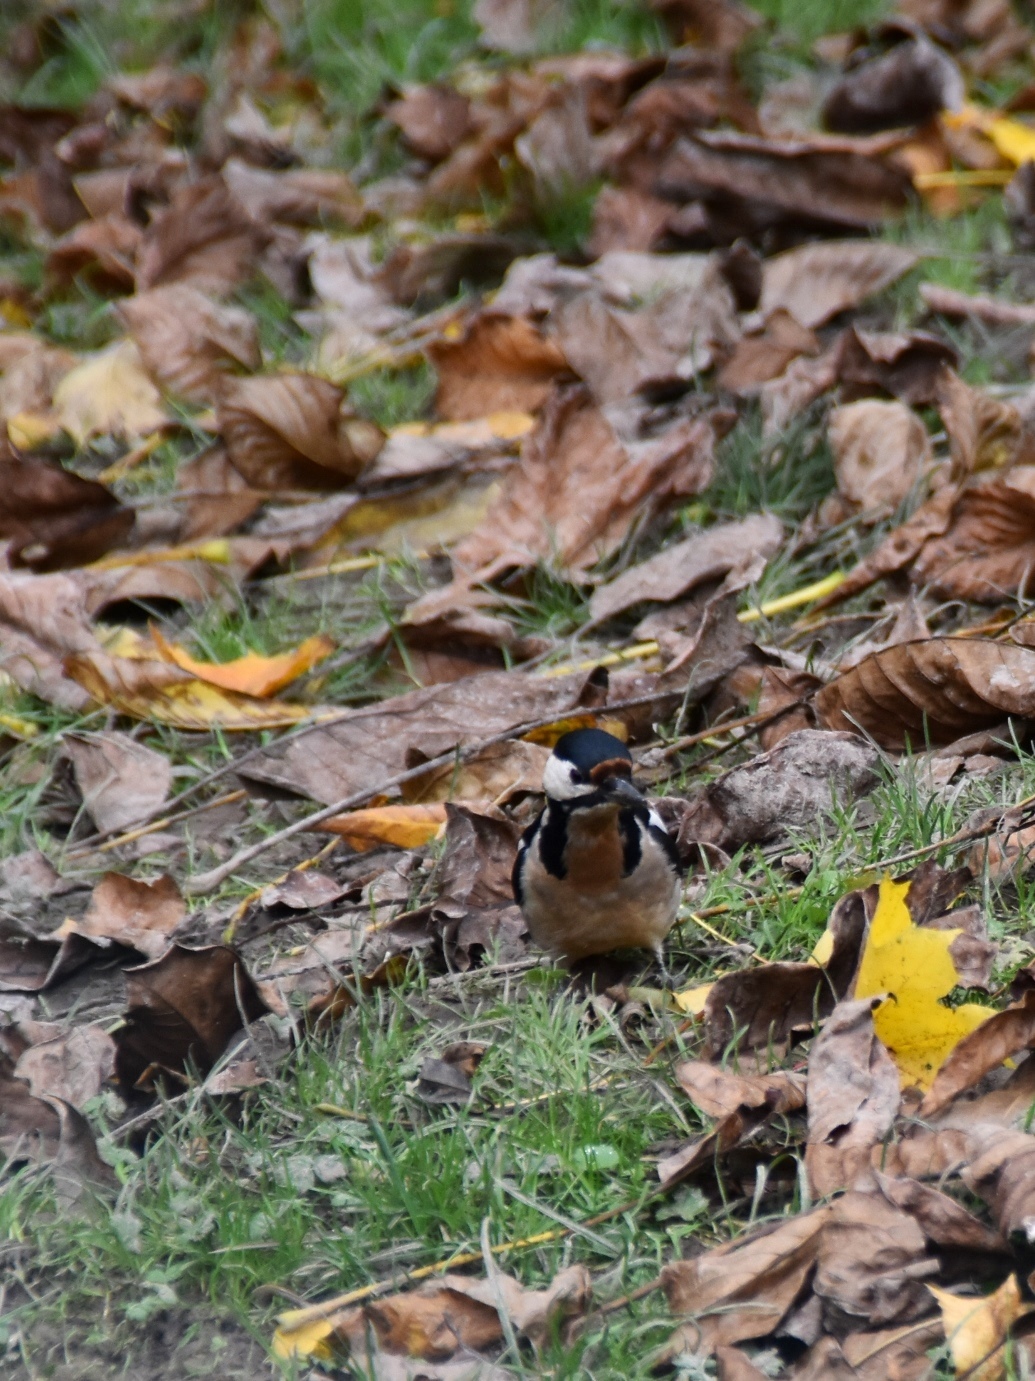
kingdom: Animalia
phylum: Chordata
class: Aves
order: Piciformes
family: Picidae
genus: Dendrocopos
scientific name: Dendrocopos major
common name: Great spotted woodpecker
